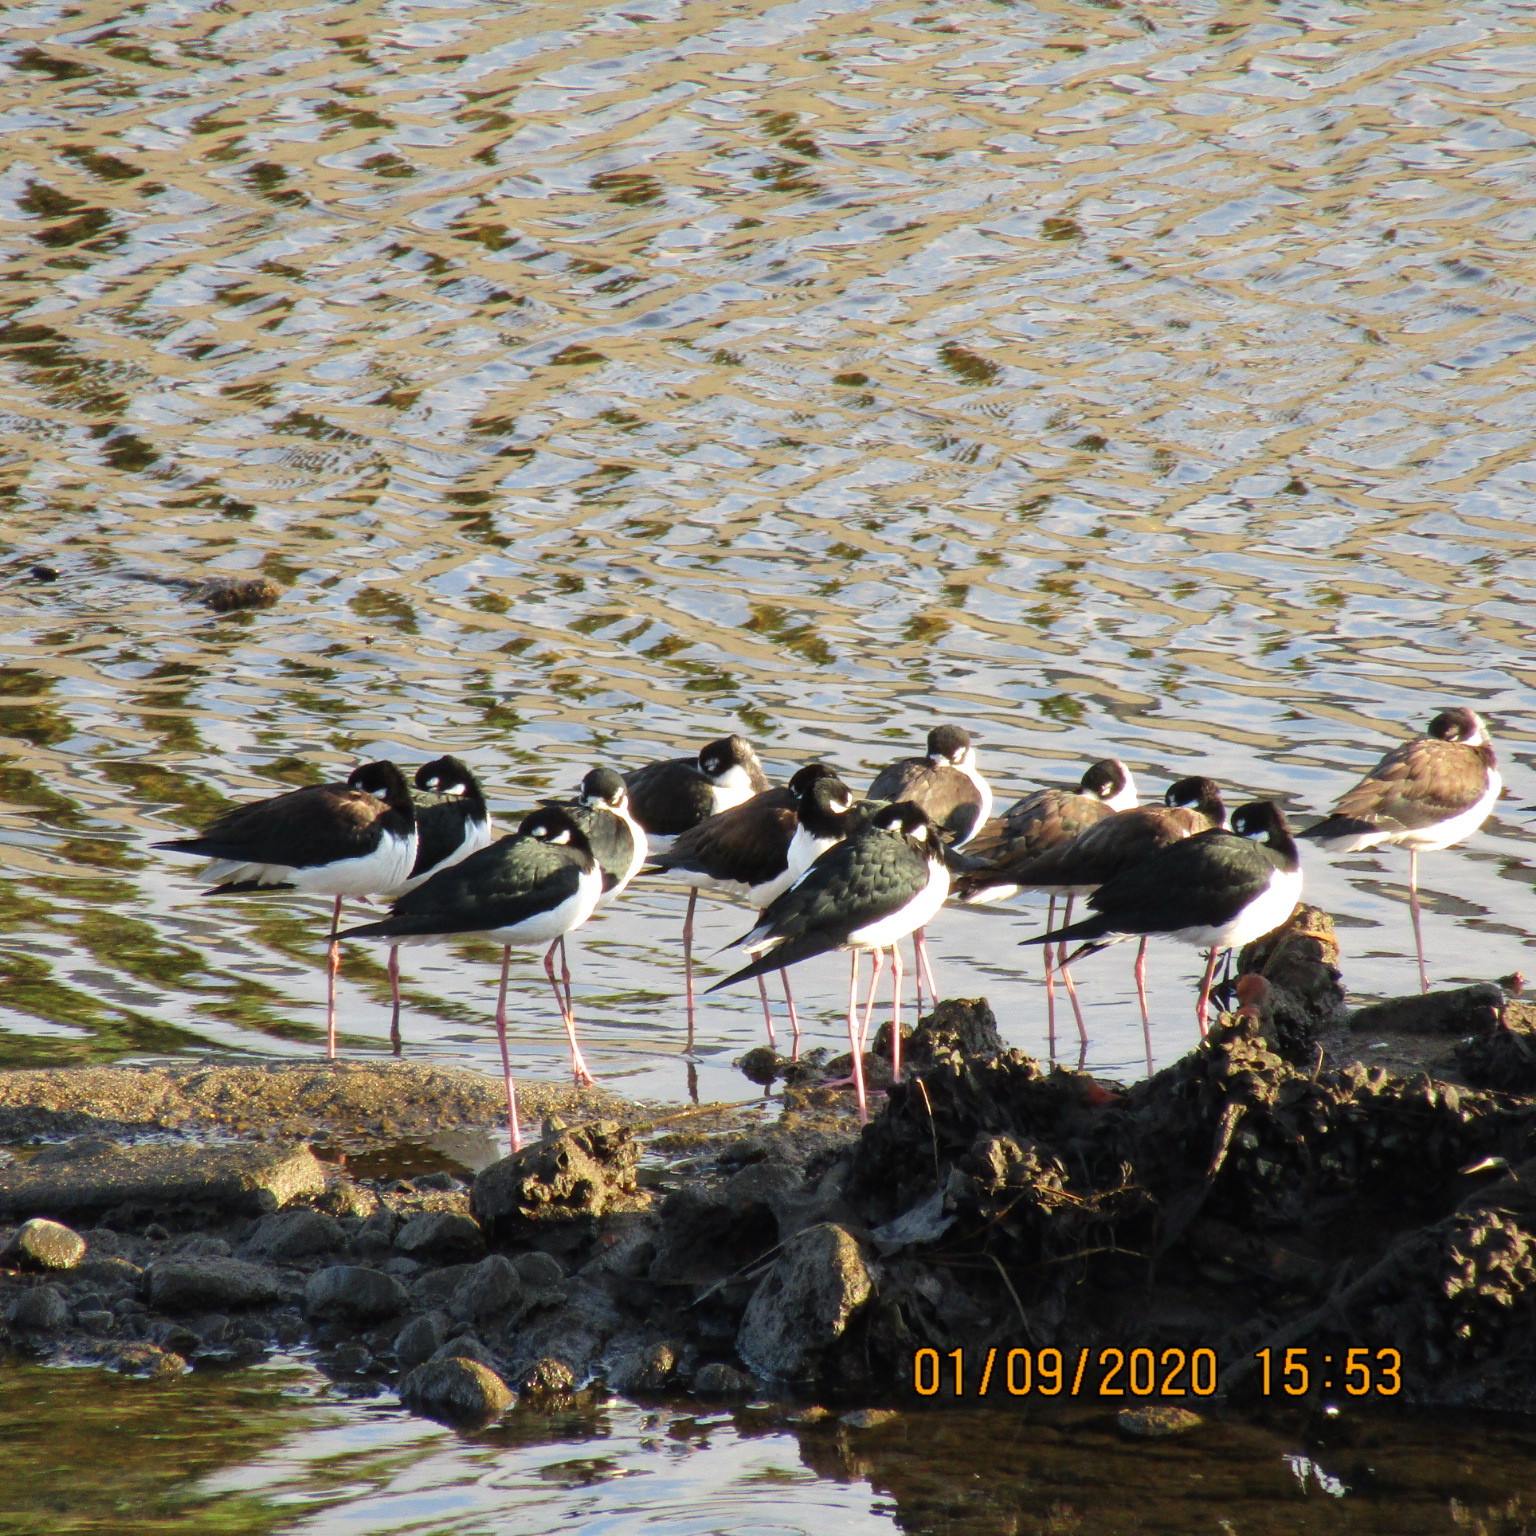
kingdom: Animalia
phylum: Chordata
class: Aves
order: Charadriiformes
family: Recurvirostridae
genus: Himantopus
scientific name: Himantopus mexicanus
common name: Black-necked stilt
